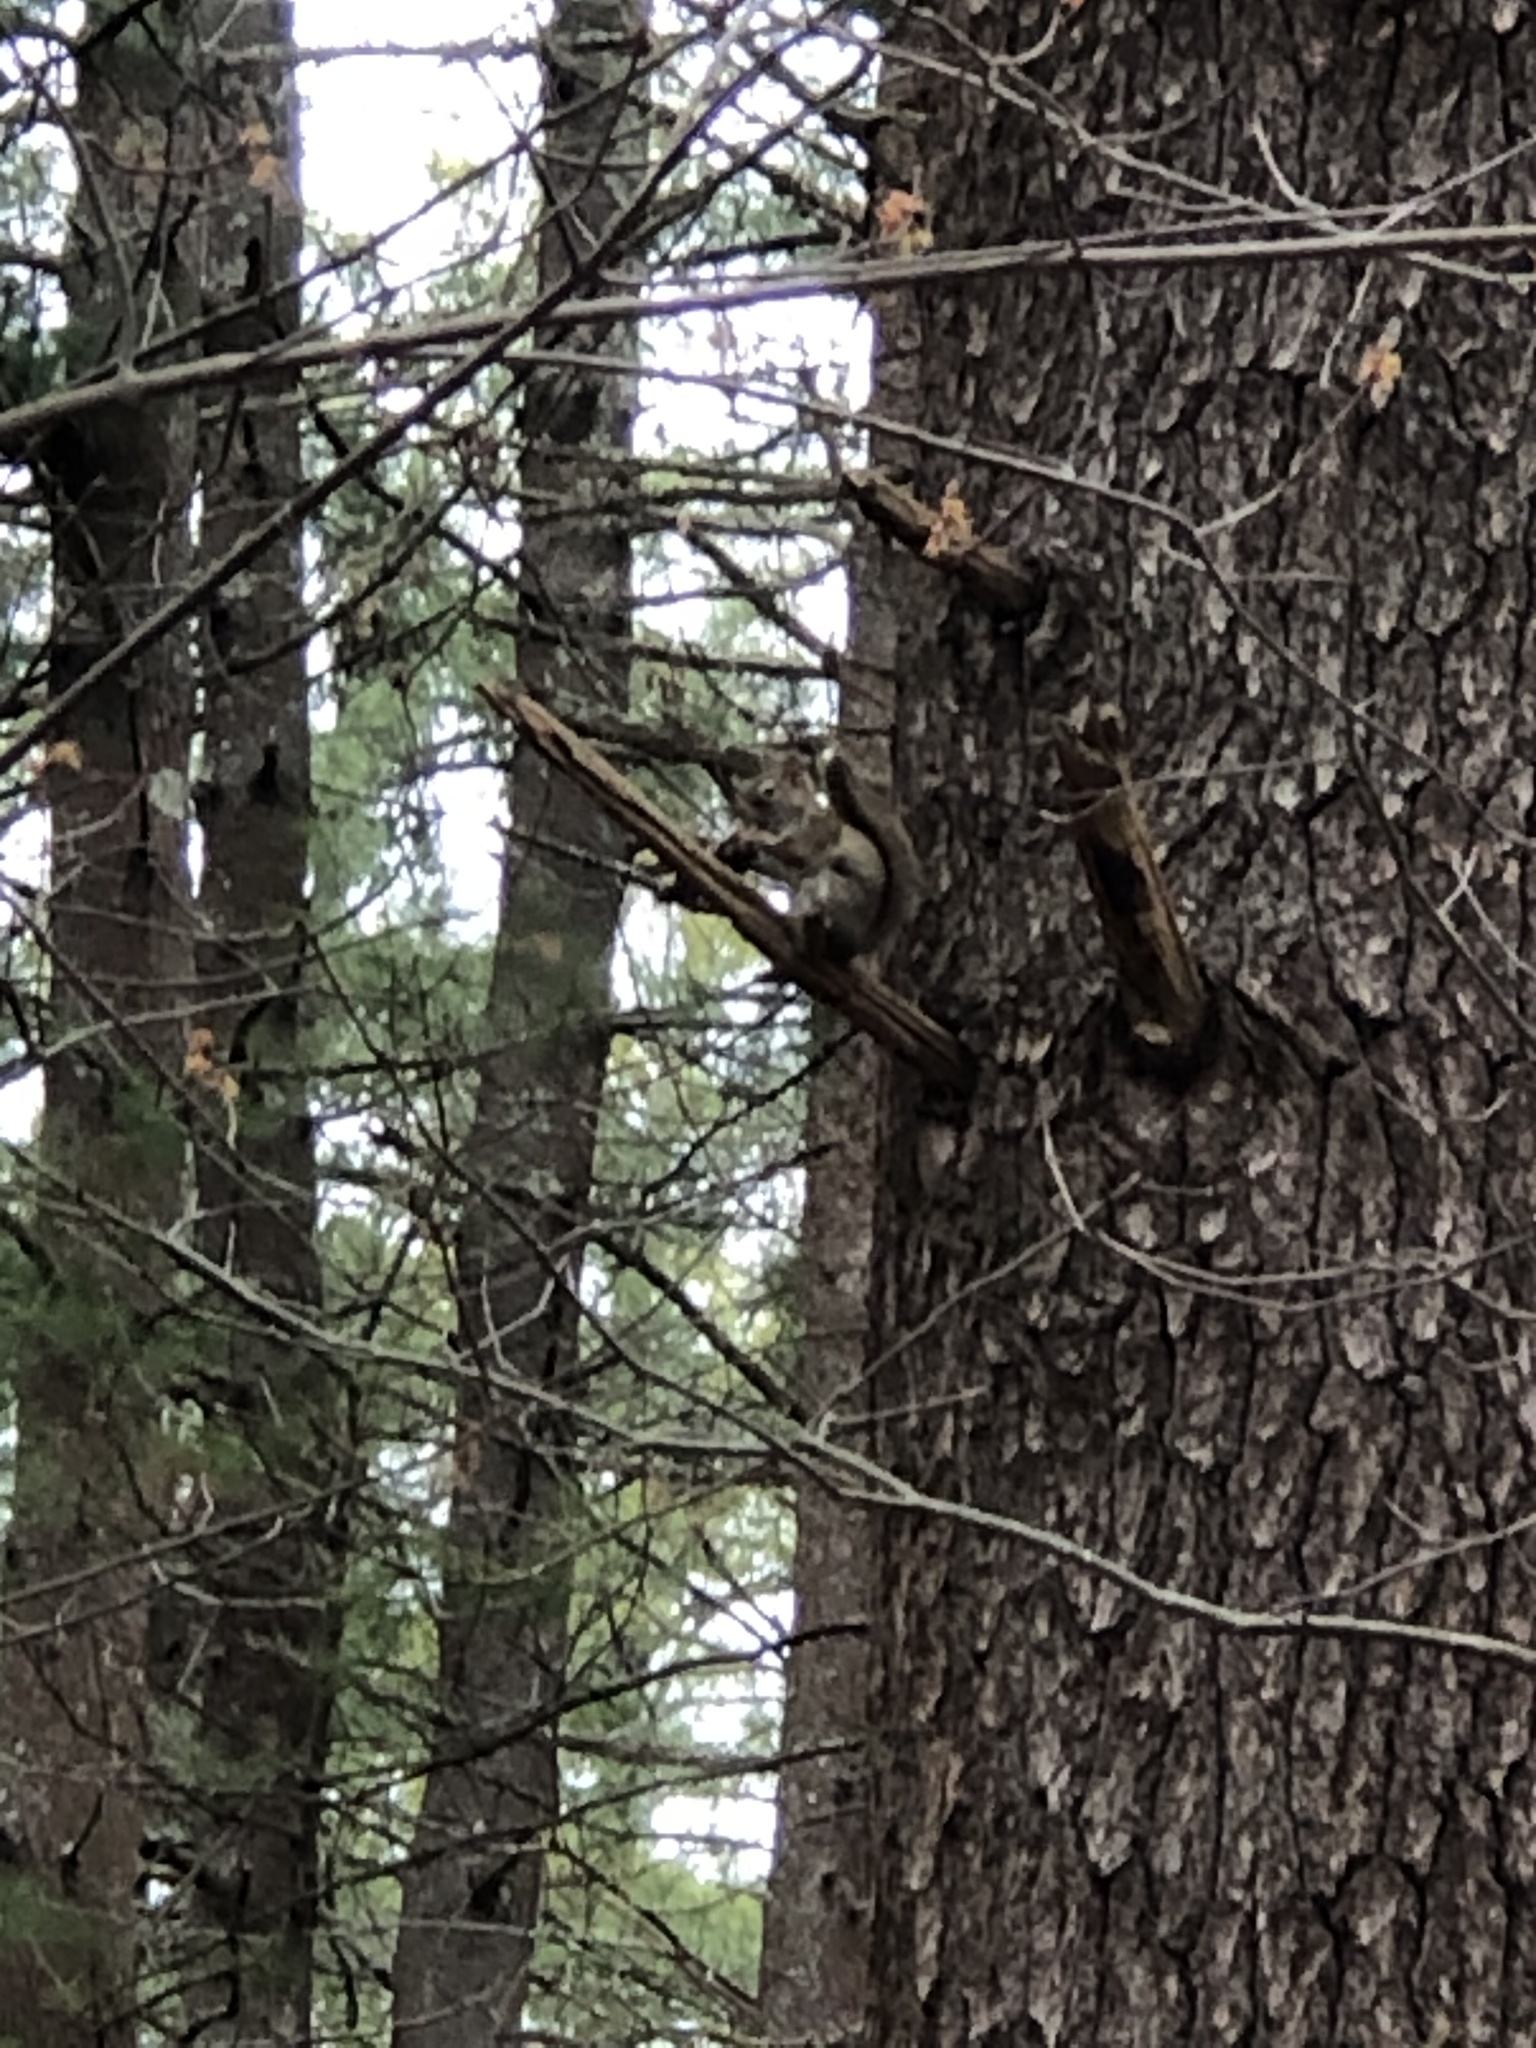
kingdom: Animalia
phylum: Chordata
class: Mammalia
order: Rodentia
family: Sciuridae
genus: Tamiasciurus
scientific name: Tamiasciurus hudsonicus
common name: Red squirrel
